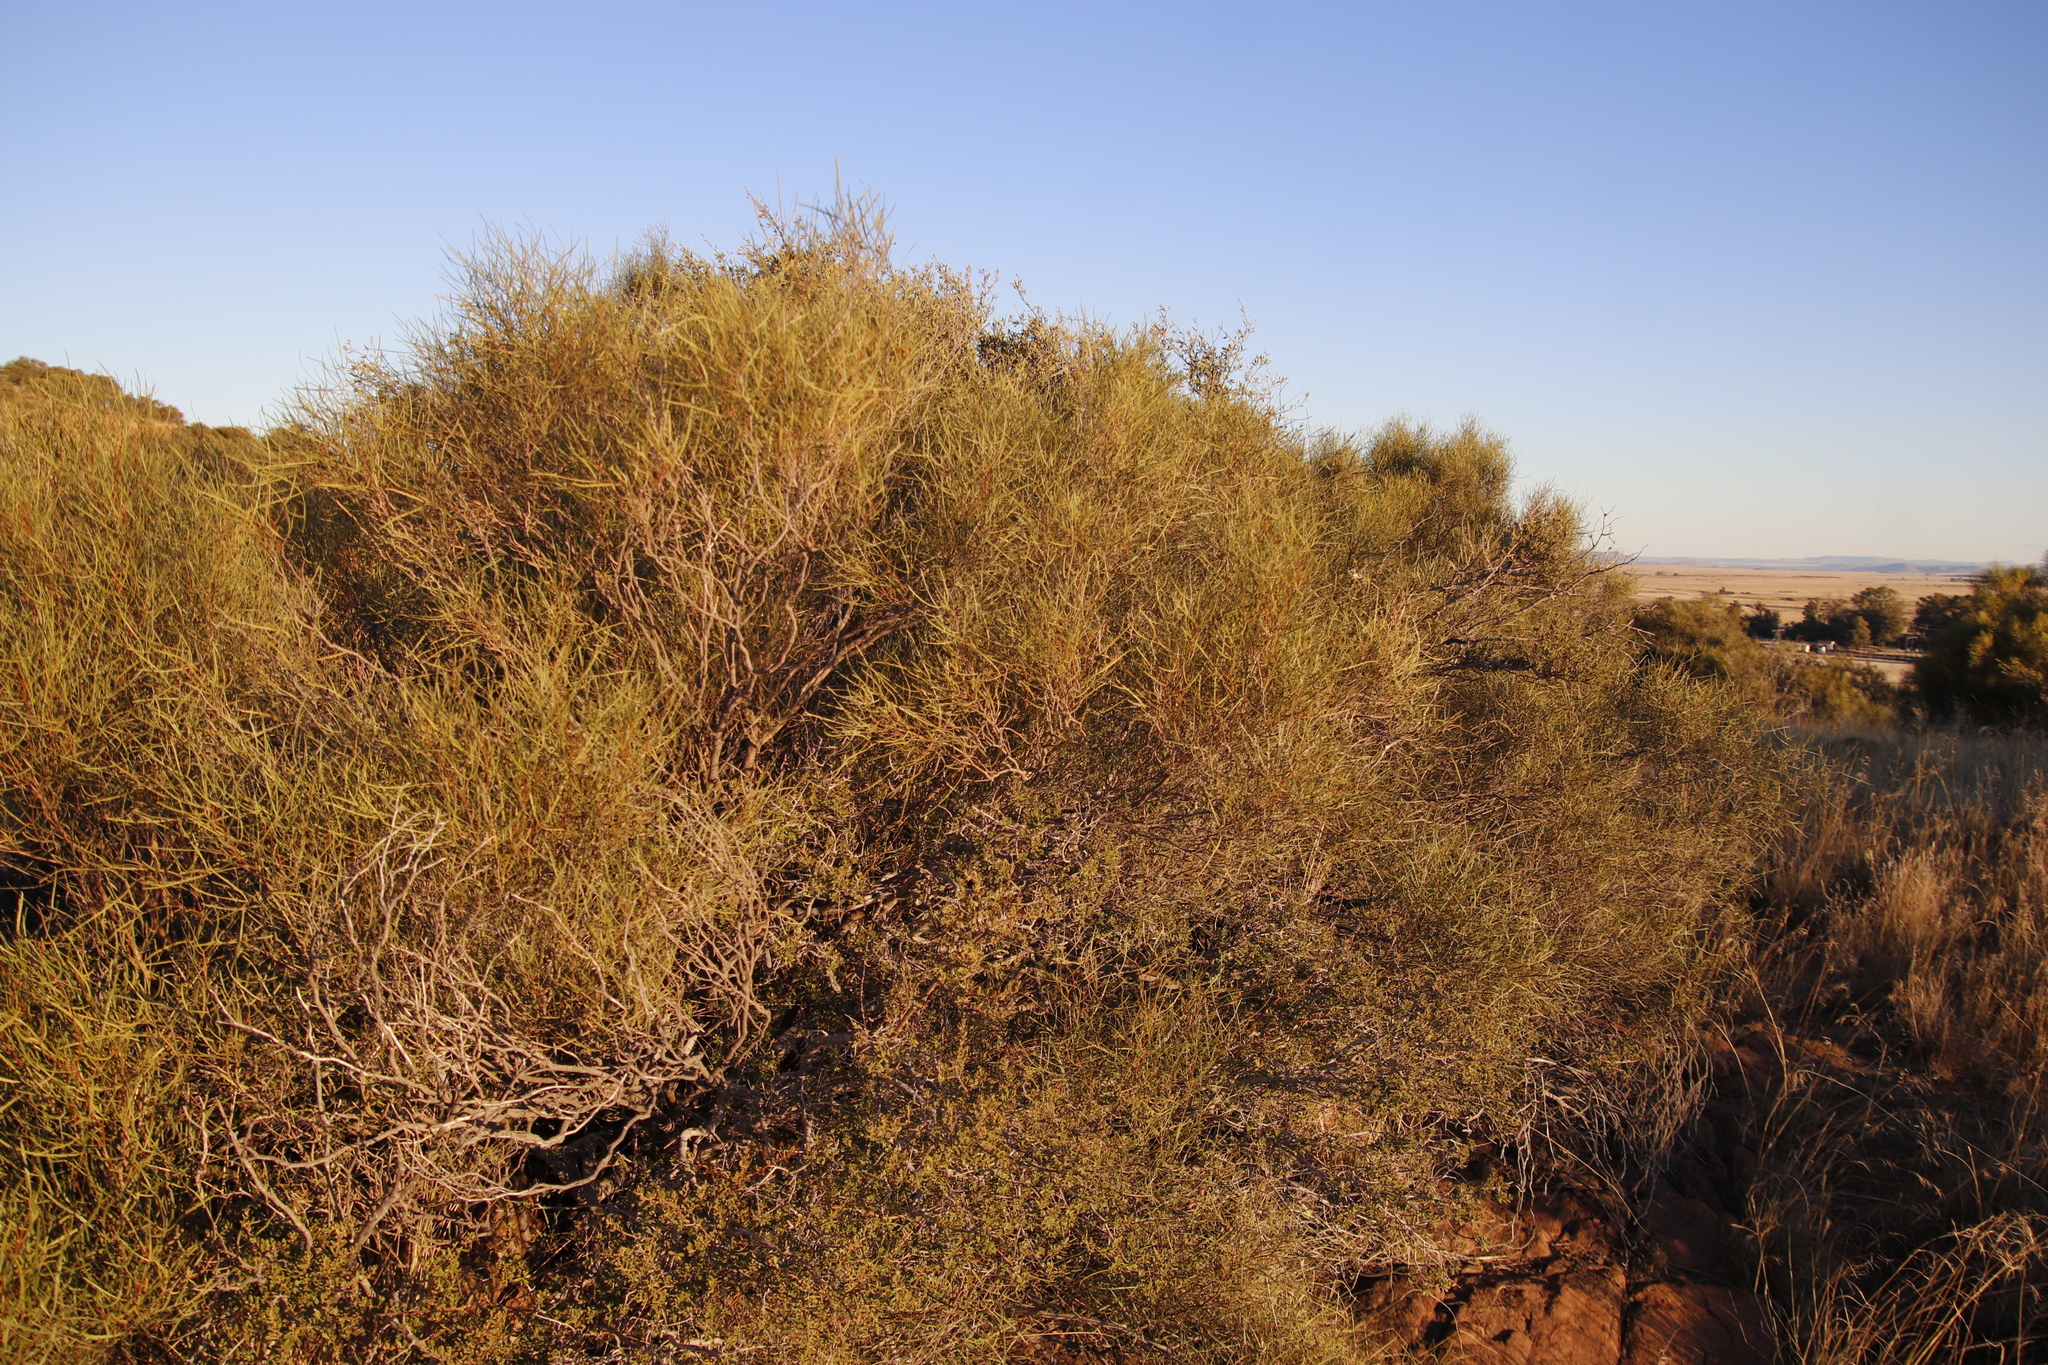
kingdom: Plantae
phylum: Tracheophyta
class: Magnoliopsida
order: Sapindales
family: Anacardiaceae
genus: Searsia
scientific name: Searsia erosa
